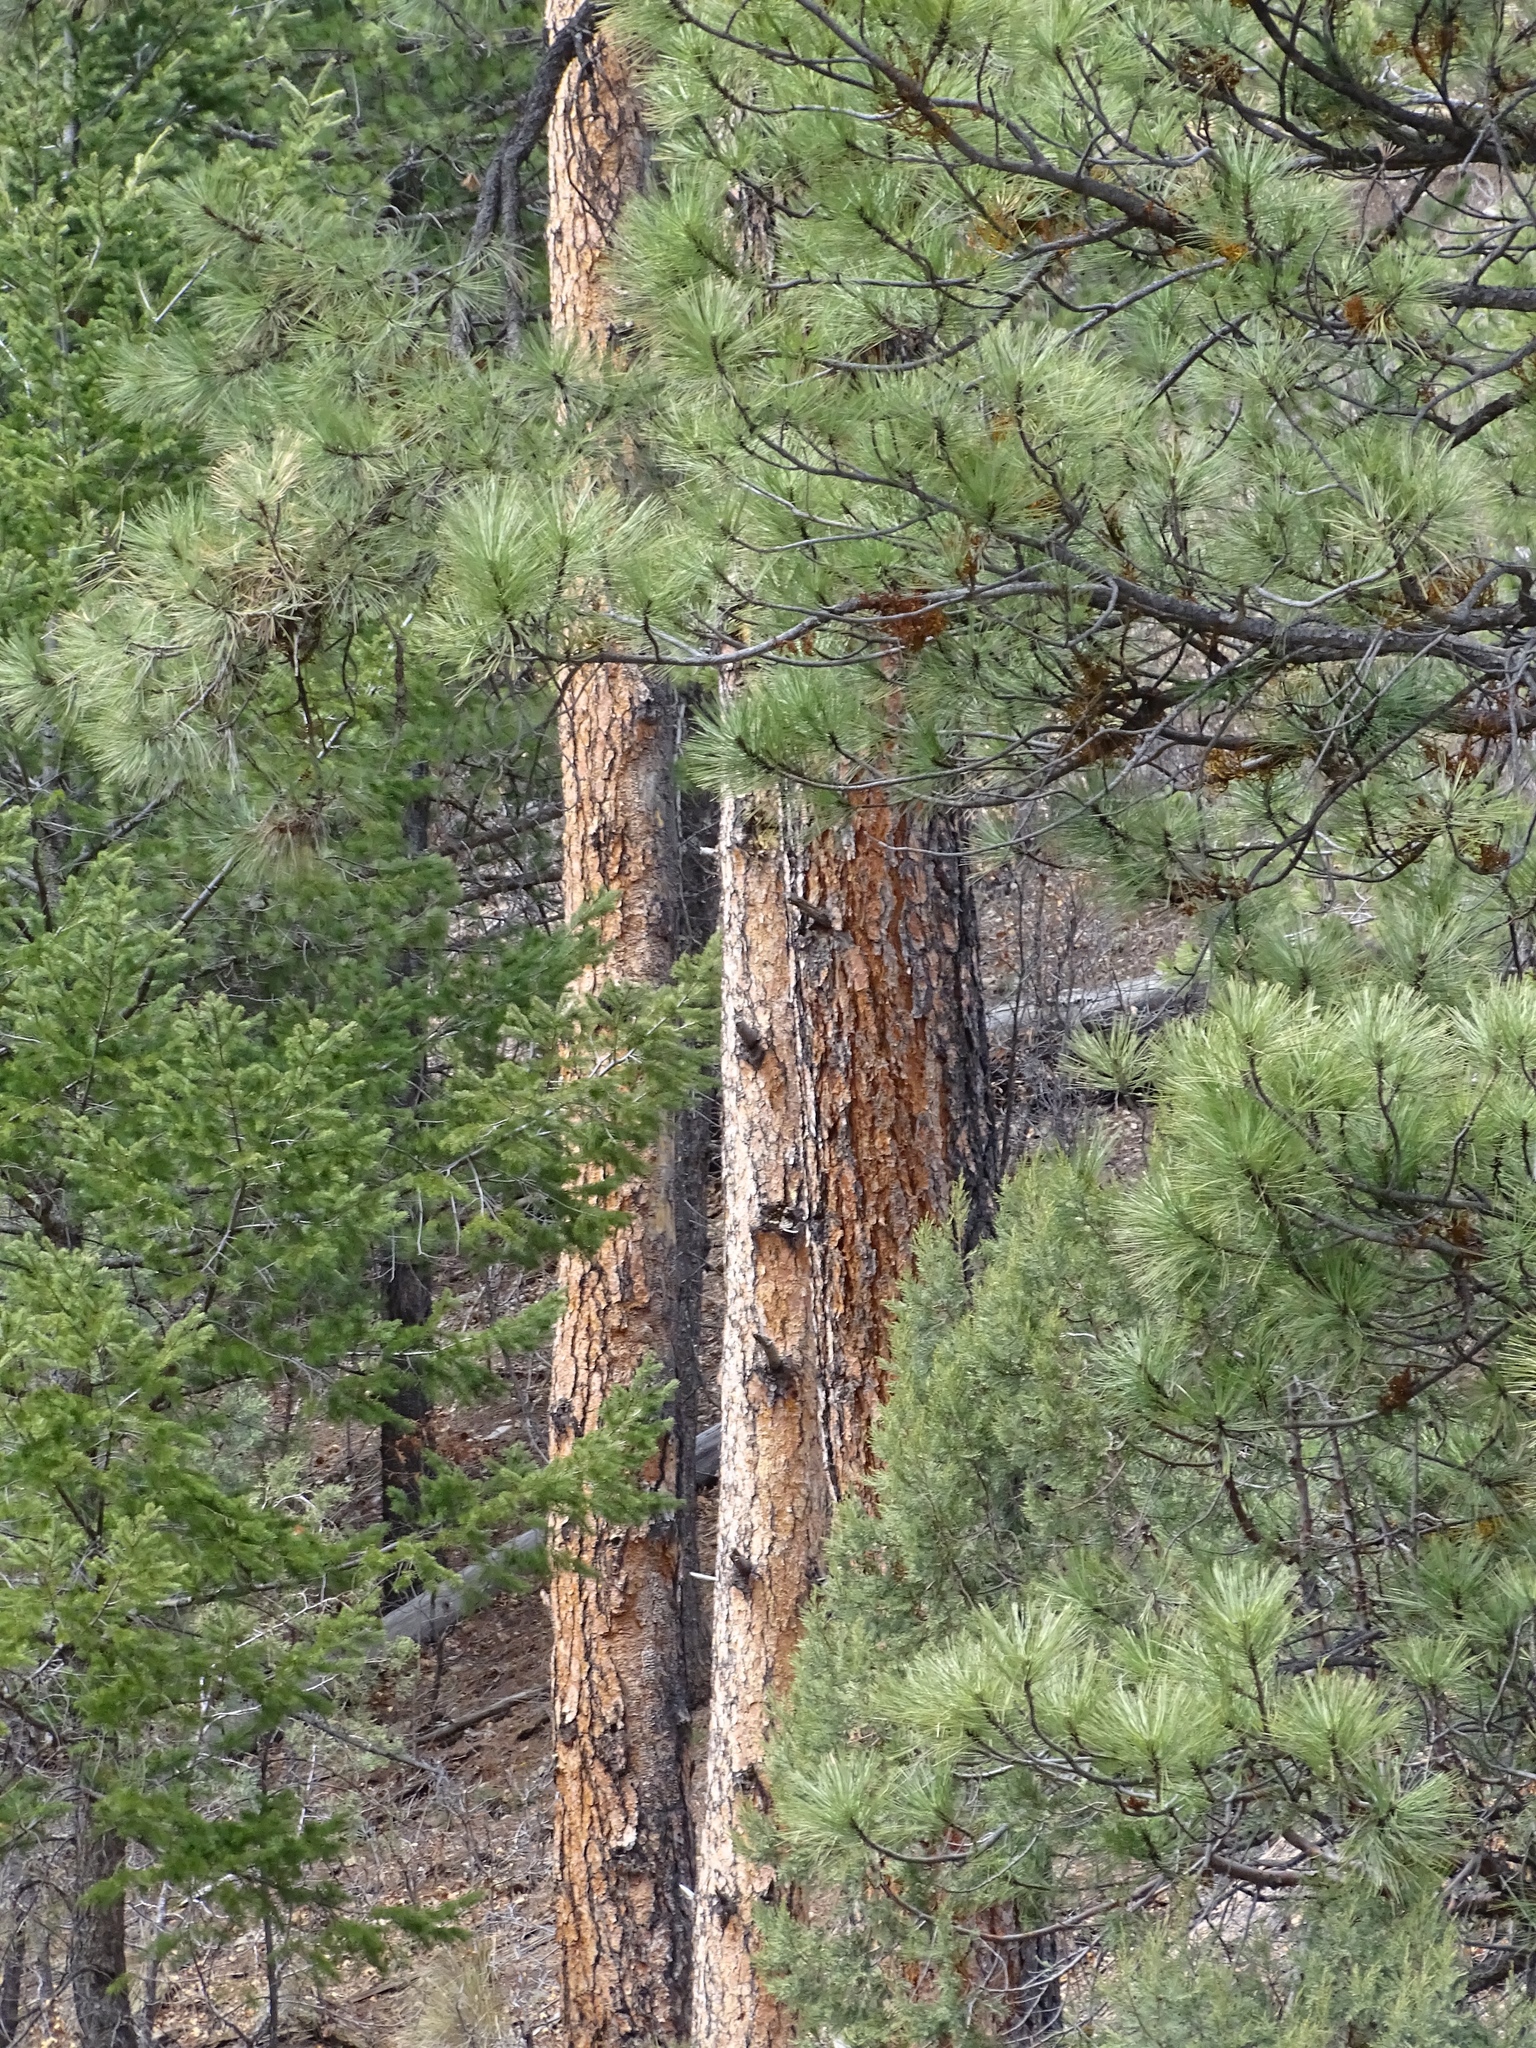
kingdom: Plantae
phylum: Tracheophyta
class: Pinopsida
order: Pinales
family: Pinaceae
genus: Pinus
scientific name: Pinus ponderosa
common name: Western yellow-pine
